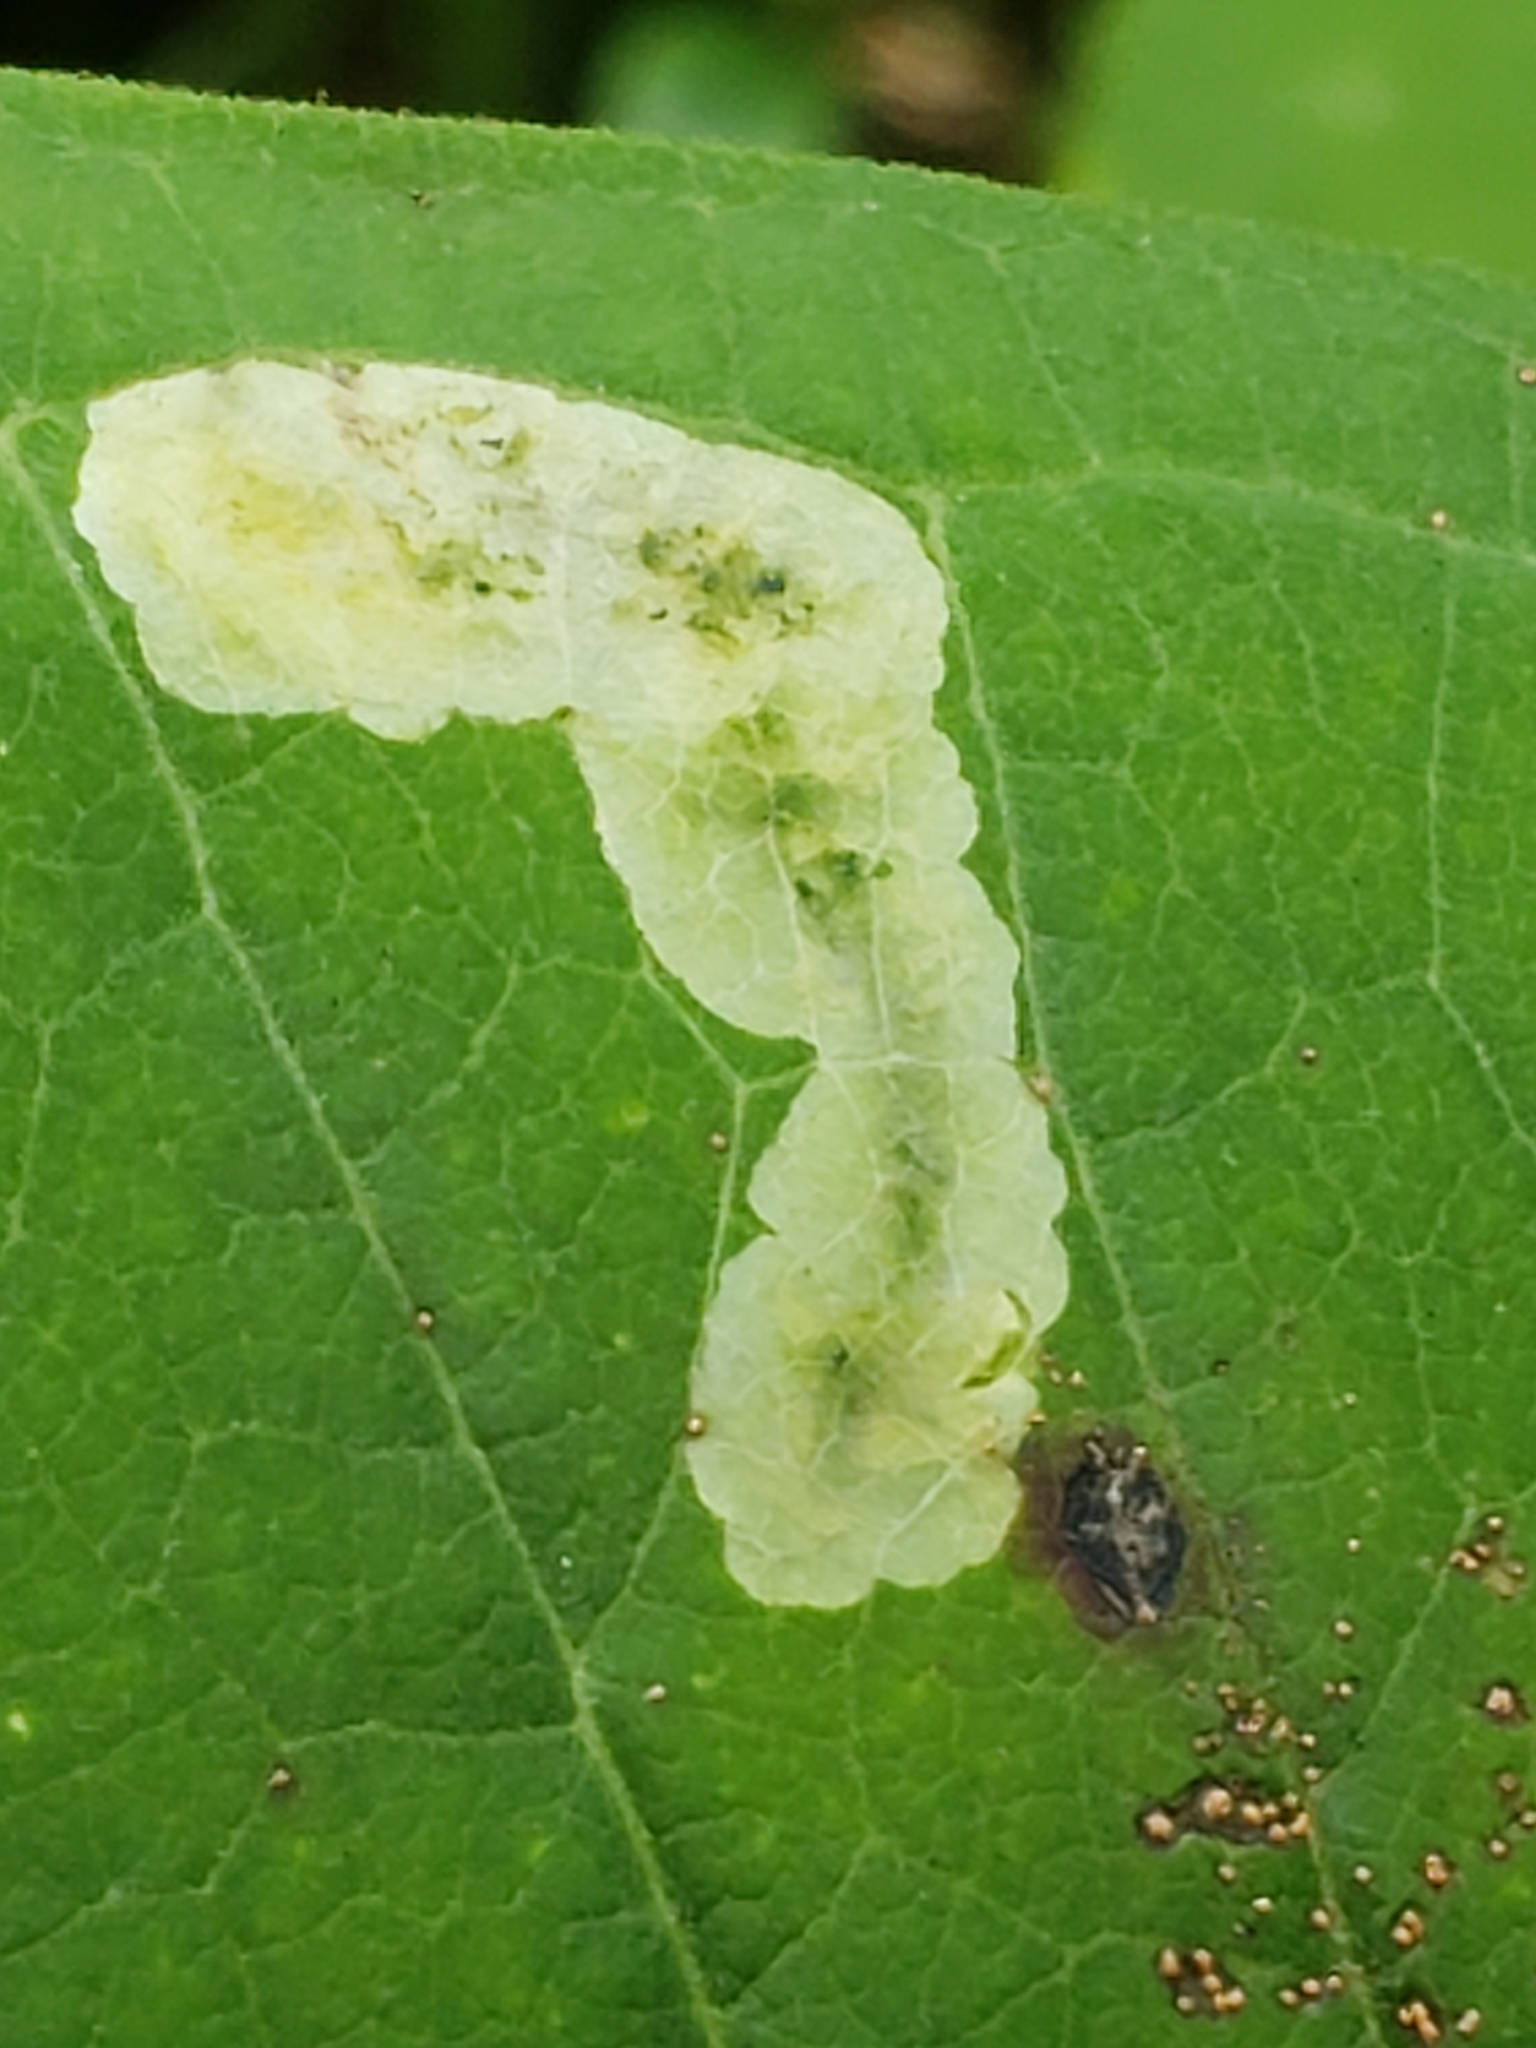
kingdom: Animalia
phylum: Arthropoda
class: Insecta
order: Diptera
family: Agromyzidae
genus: Liriomyza
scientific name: Liriomyza asclepiadis
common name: Milkweed leaf-miner fly
